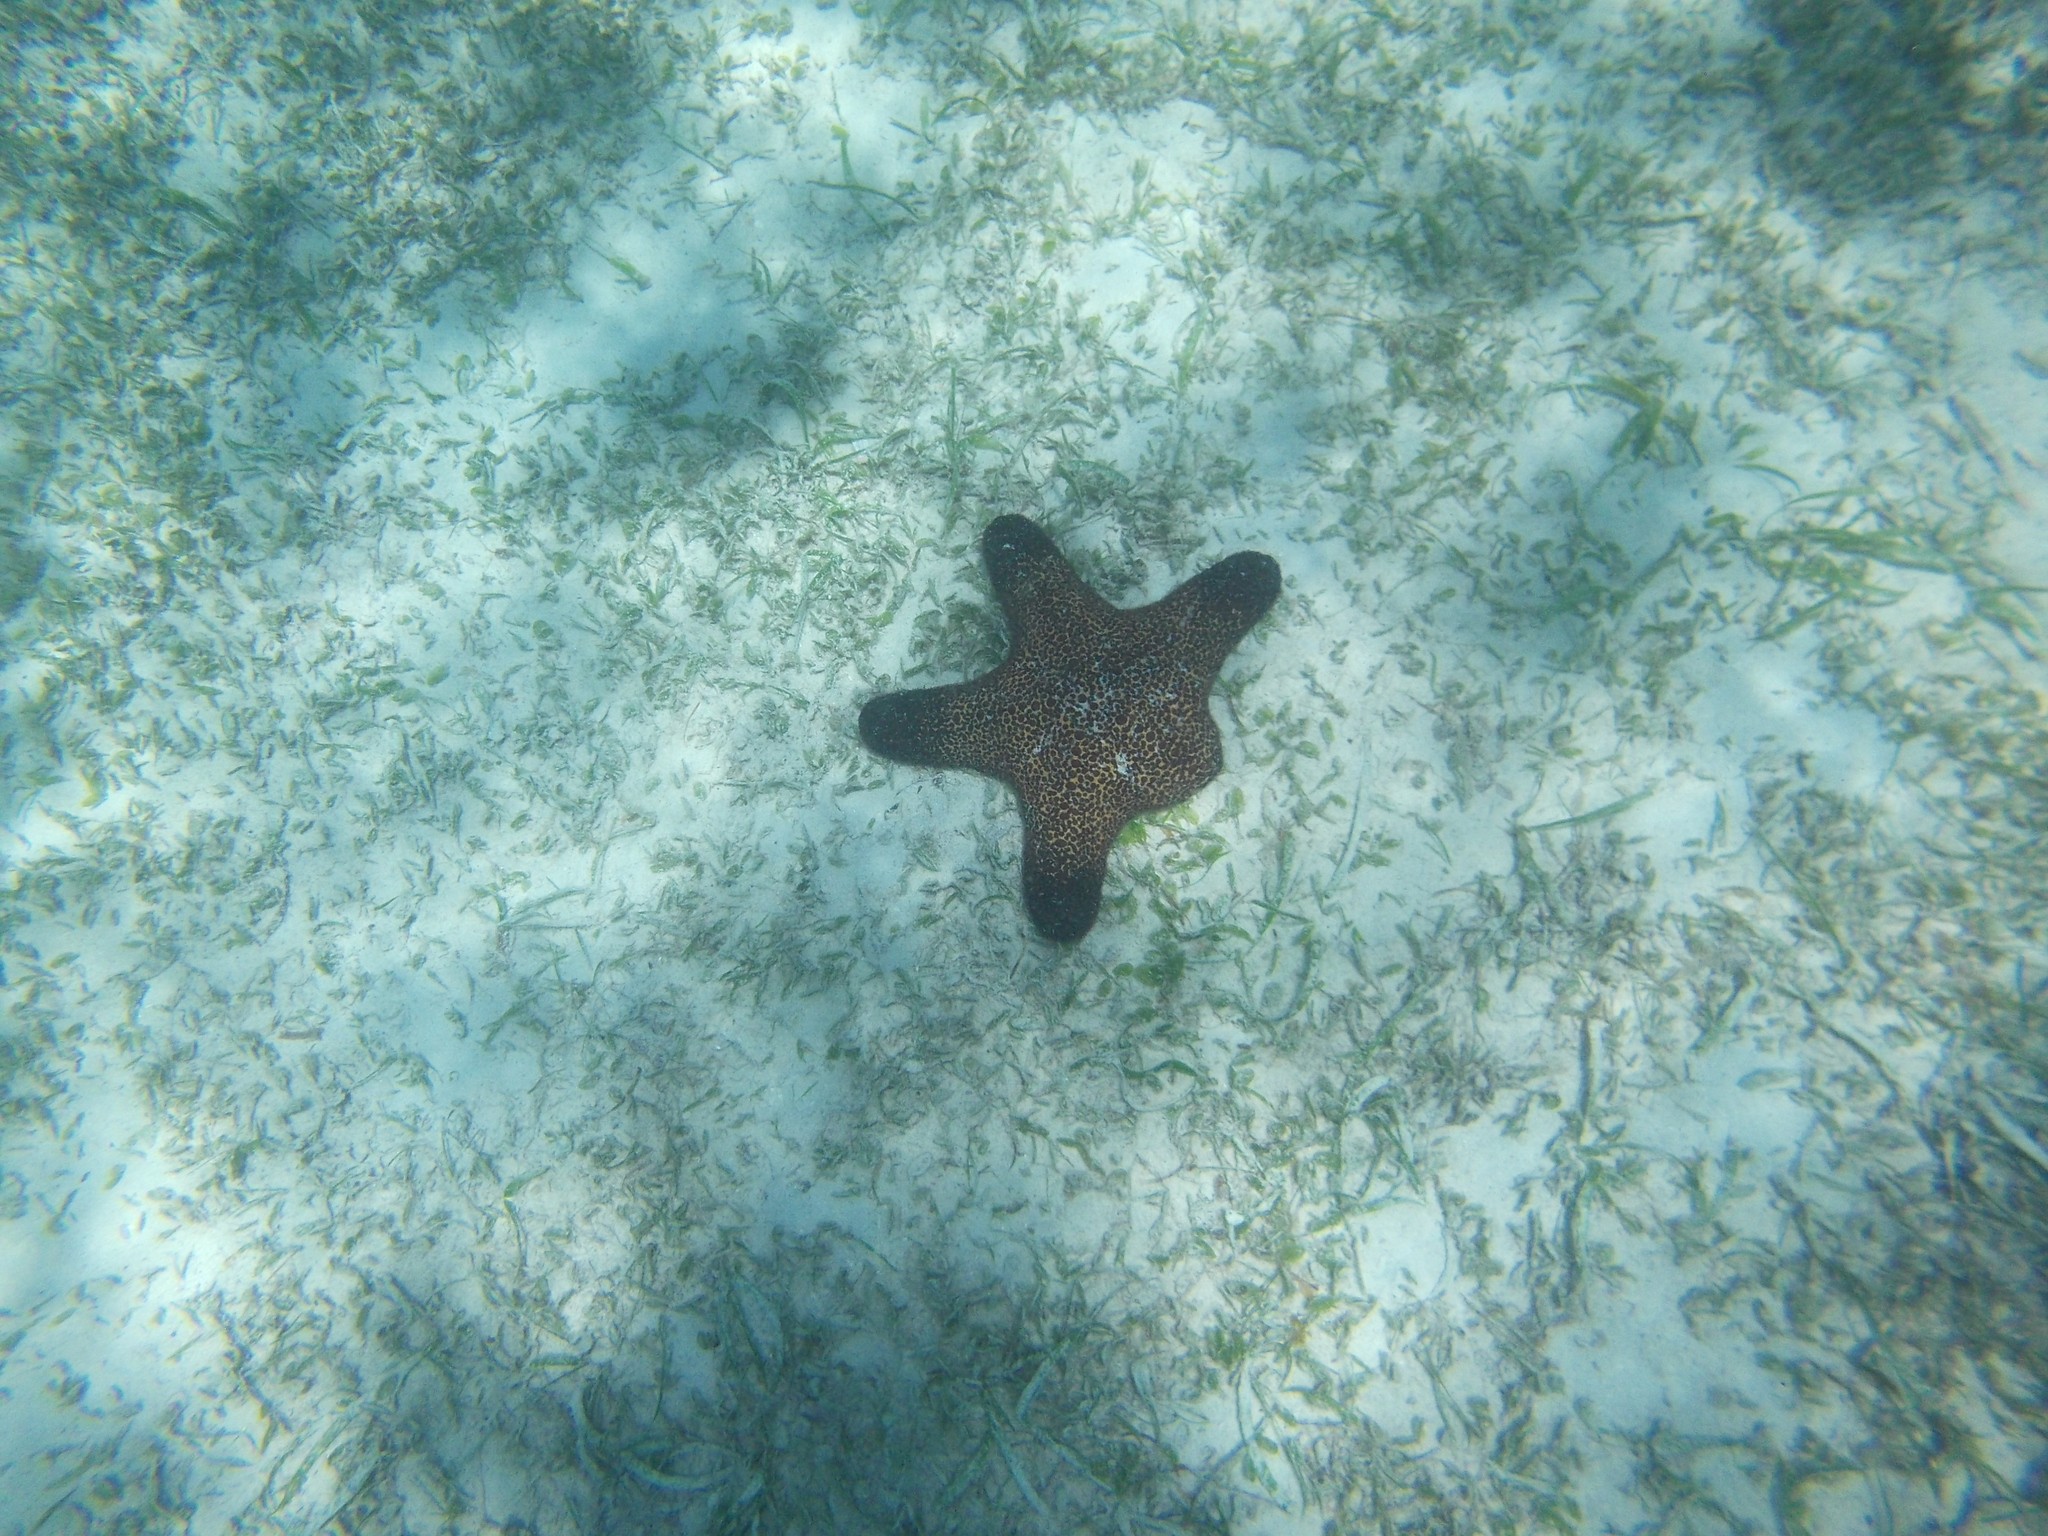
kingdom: Animalia
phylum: Echinodermata
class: Asteroidea
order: Valvatida
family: Oreasteridae
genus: Pentaster
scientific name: Pentaster obtusatus
